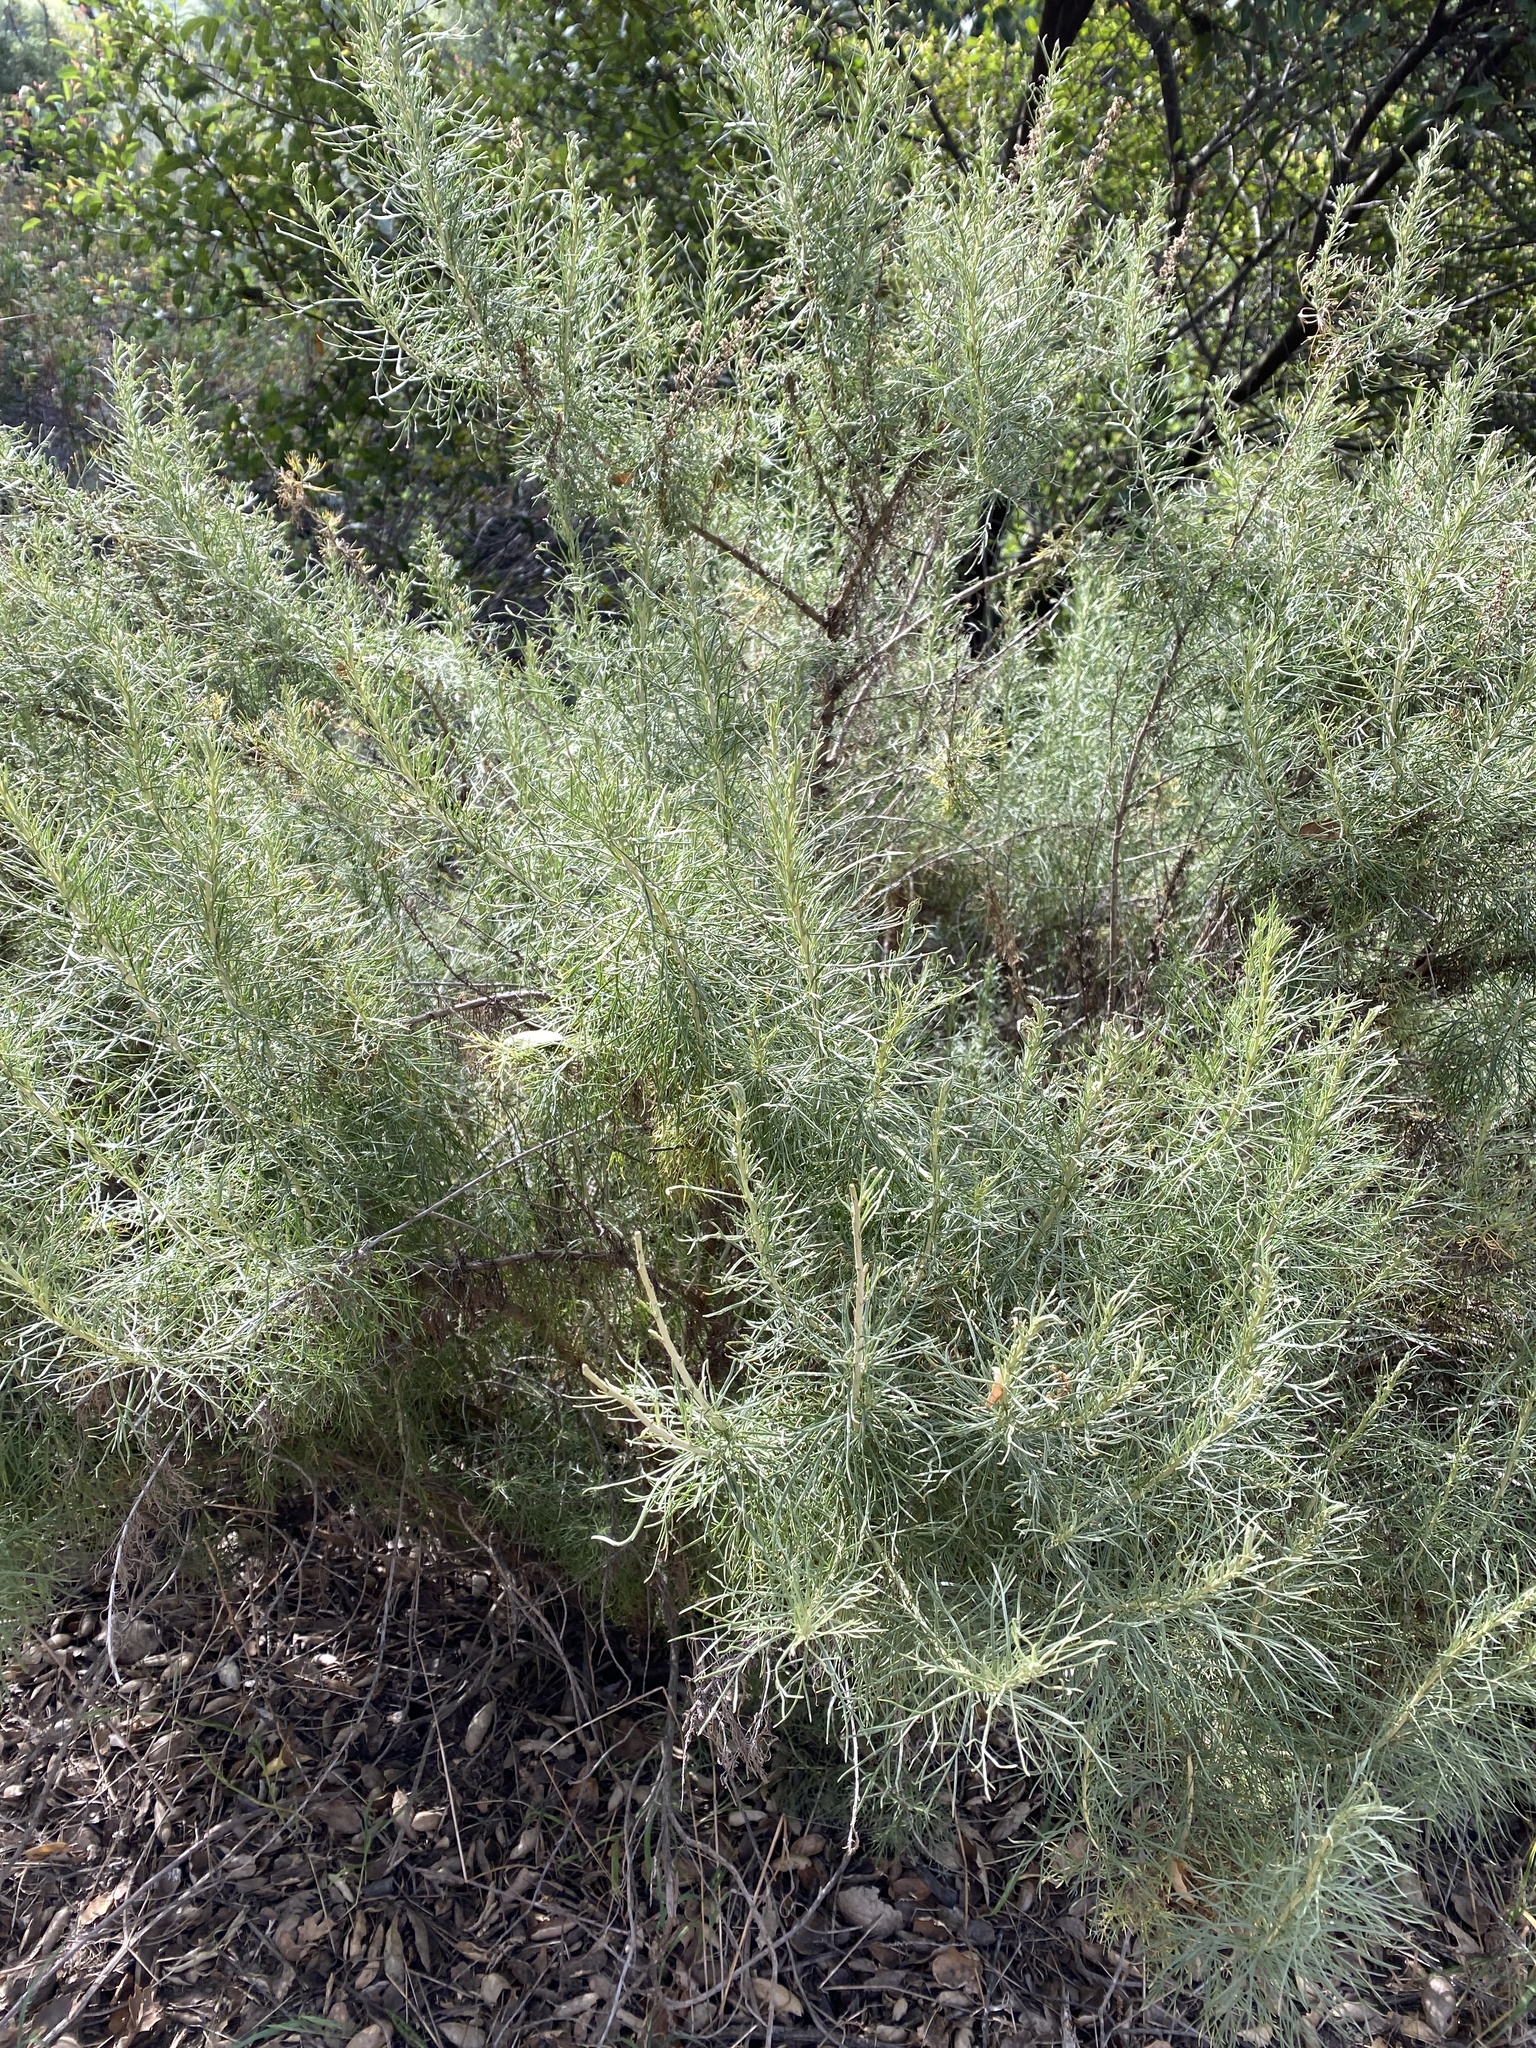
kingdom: Plantae
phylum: Tracheophyta
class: Magnoliopsida
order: Asterales
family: Asteraceae
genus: Artemisia
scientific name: Artemisia californica
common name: California sagebrush
